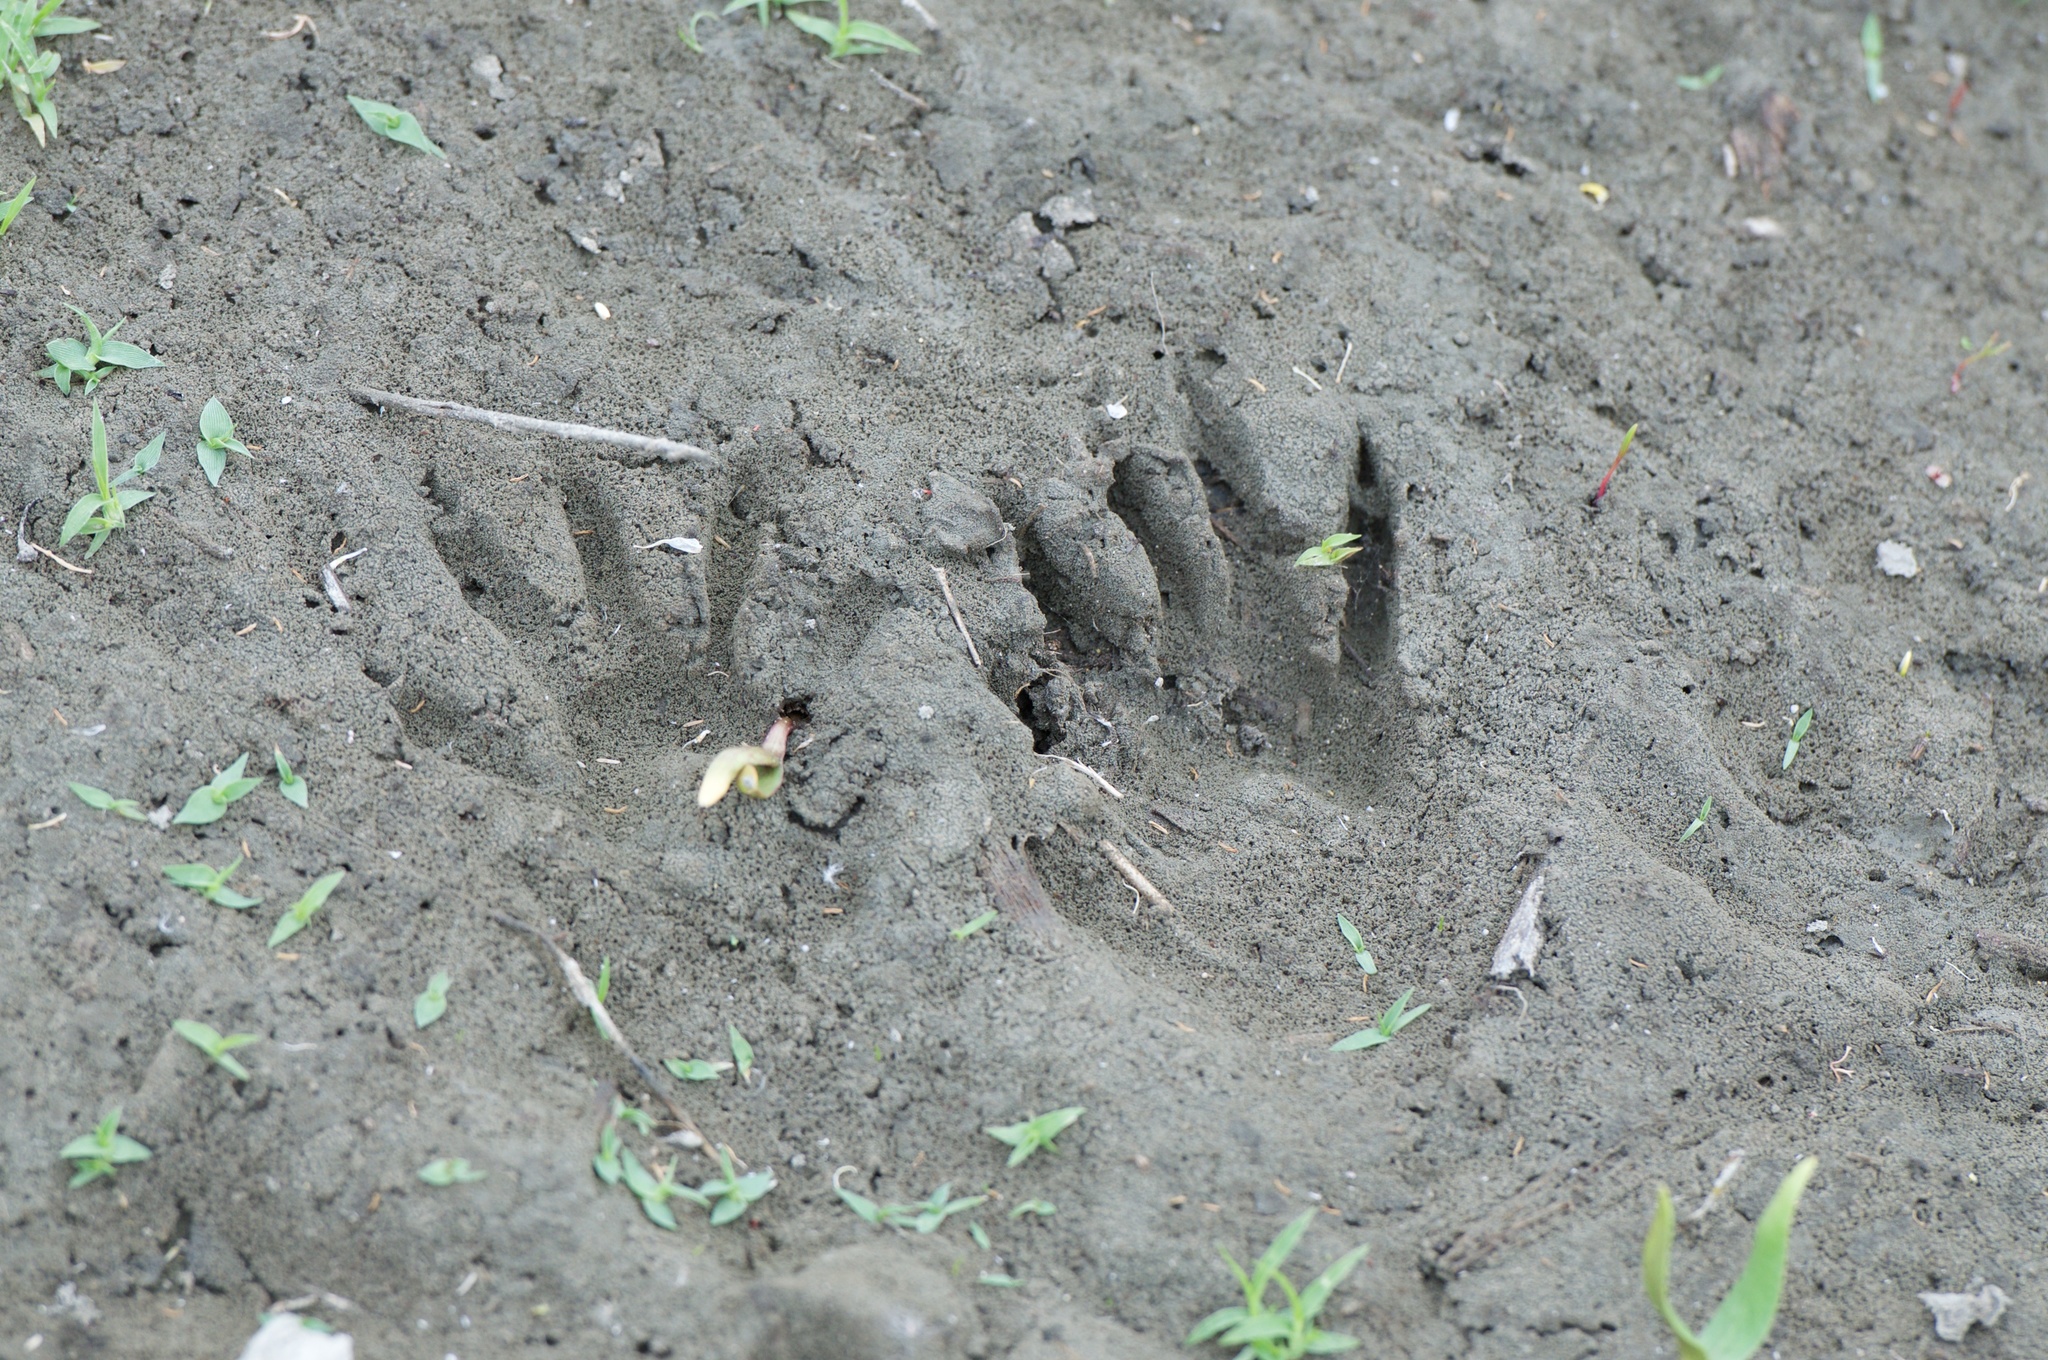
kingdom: Animalia
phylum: Chordata
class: Mammalia
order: Carnivora
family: Procyonidae
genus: Procyon
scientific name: Procyon lotor
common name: Raccoon
